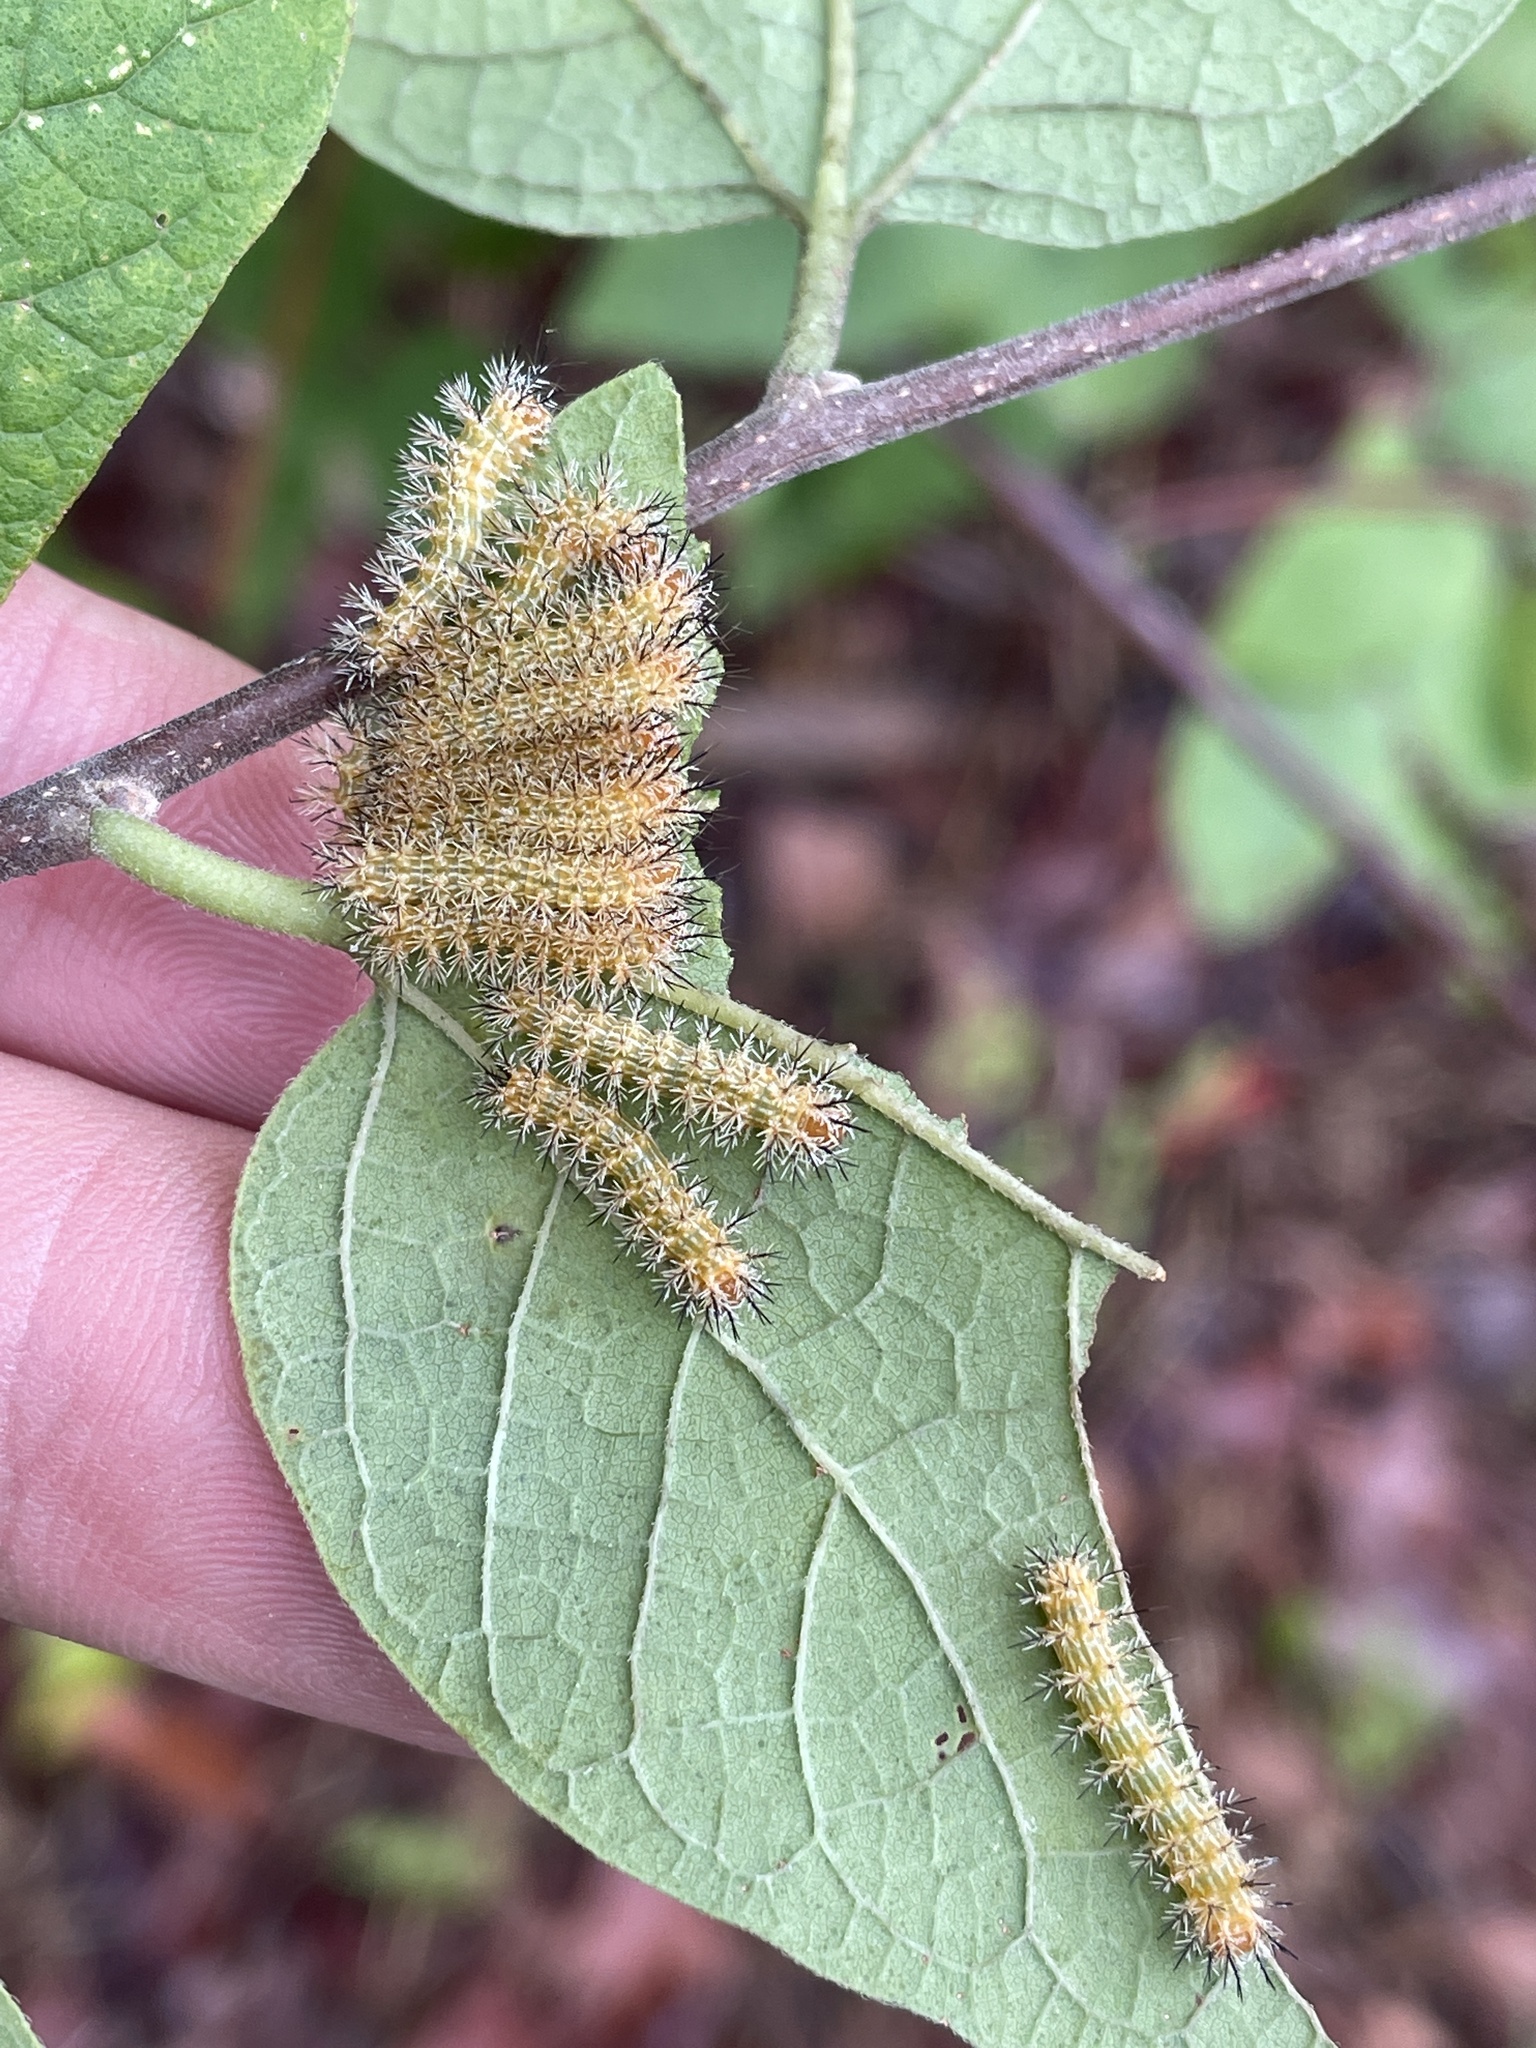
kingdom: Animalia
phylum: Arthropoda
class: Insecta
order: Lepidoptera
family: Saturniidae
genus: Automeris
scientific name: Automeris io
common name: Io moth
